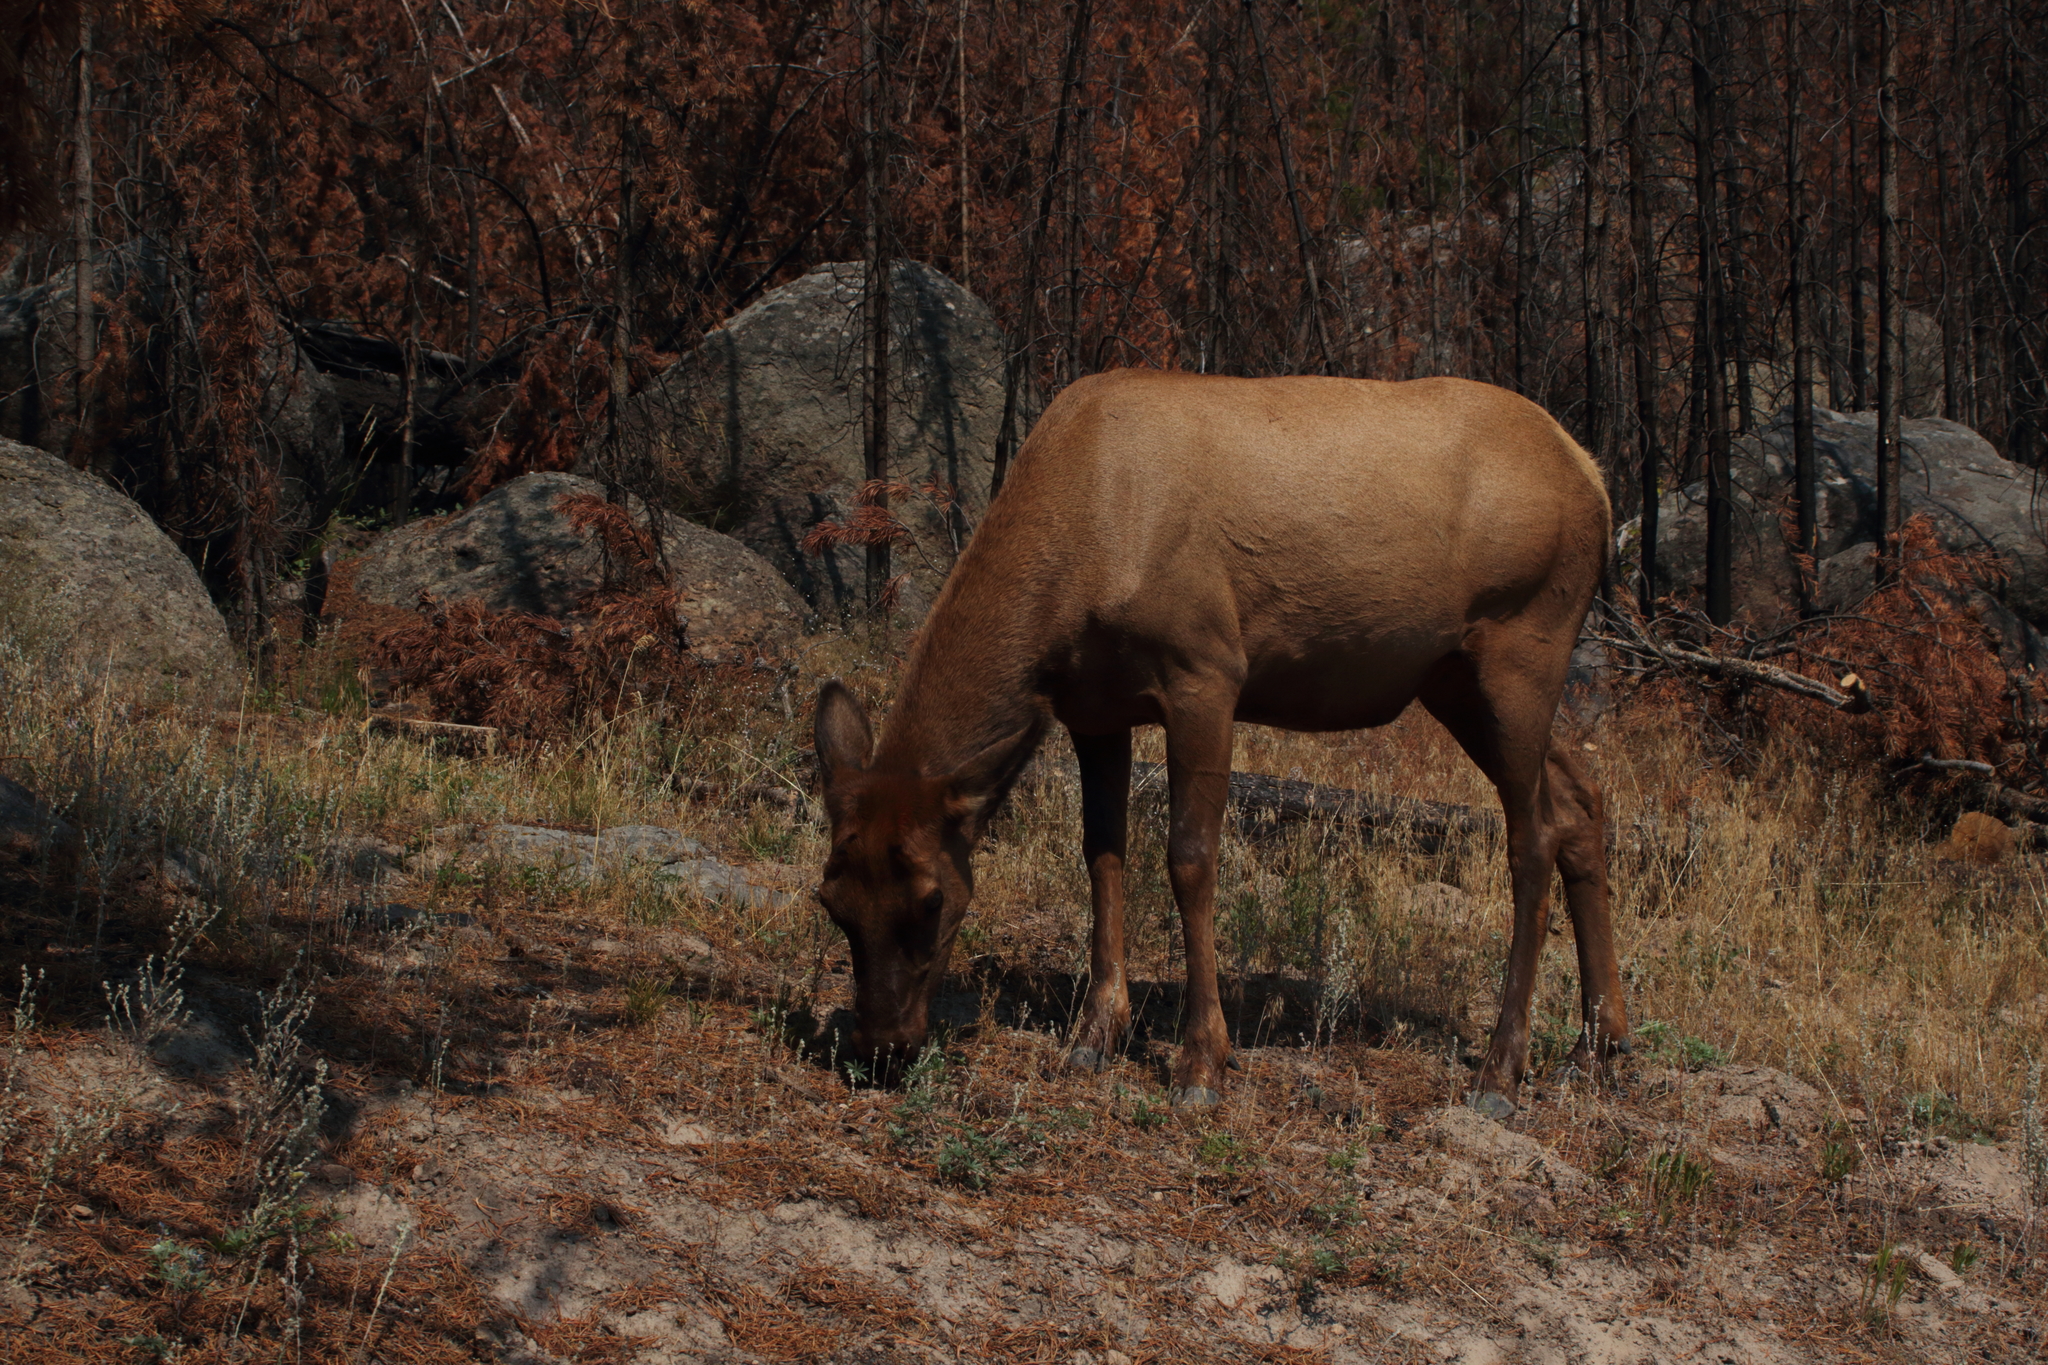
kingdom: Animalia
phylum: Chordata
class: Mammalia
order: Artiodactyla
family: Cervidae
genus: Cervus
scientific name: Cervus elaphus
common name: Red deer
